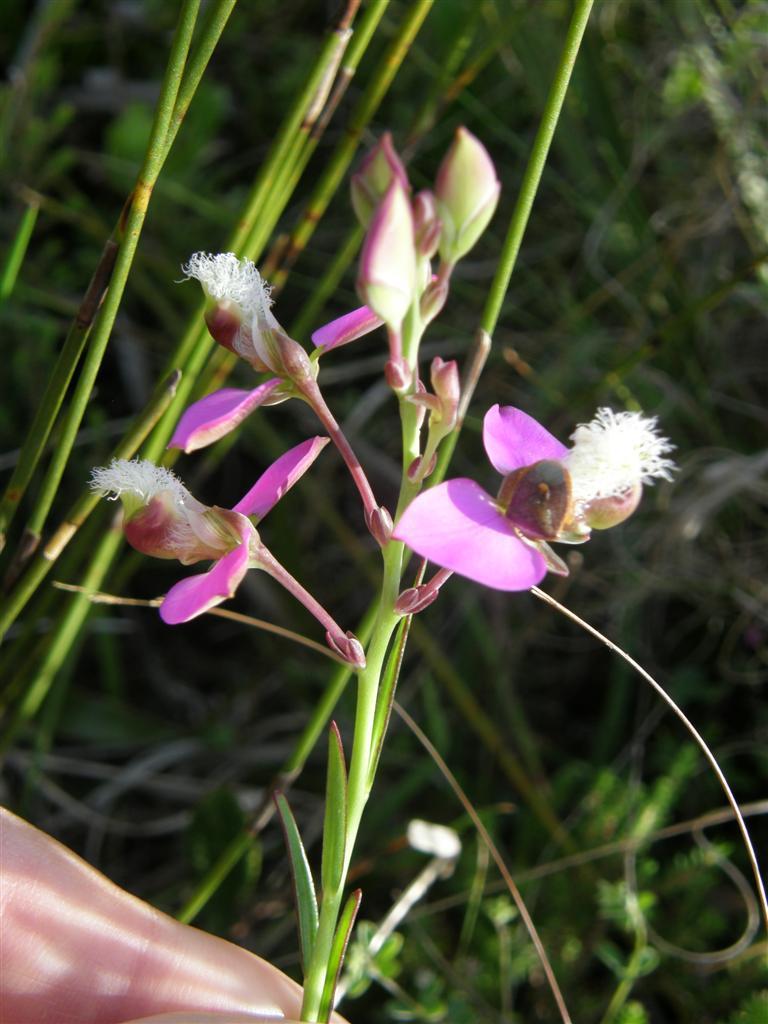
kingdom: Plantae
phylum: Tracheophyta
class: Magnoliopsida
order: Fabales
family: Polygalaceae
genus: Polygala
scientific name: Polygala bracteolata
